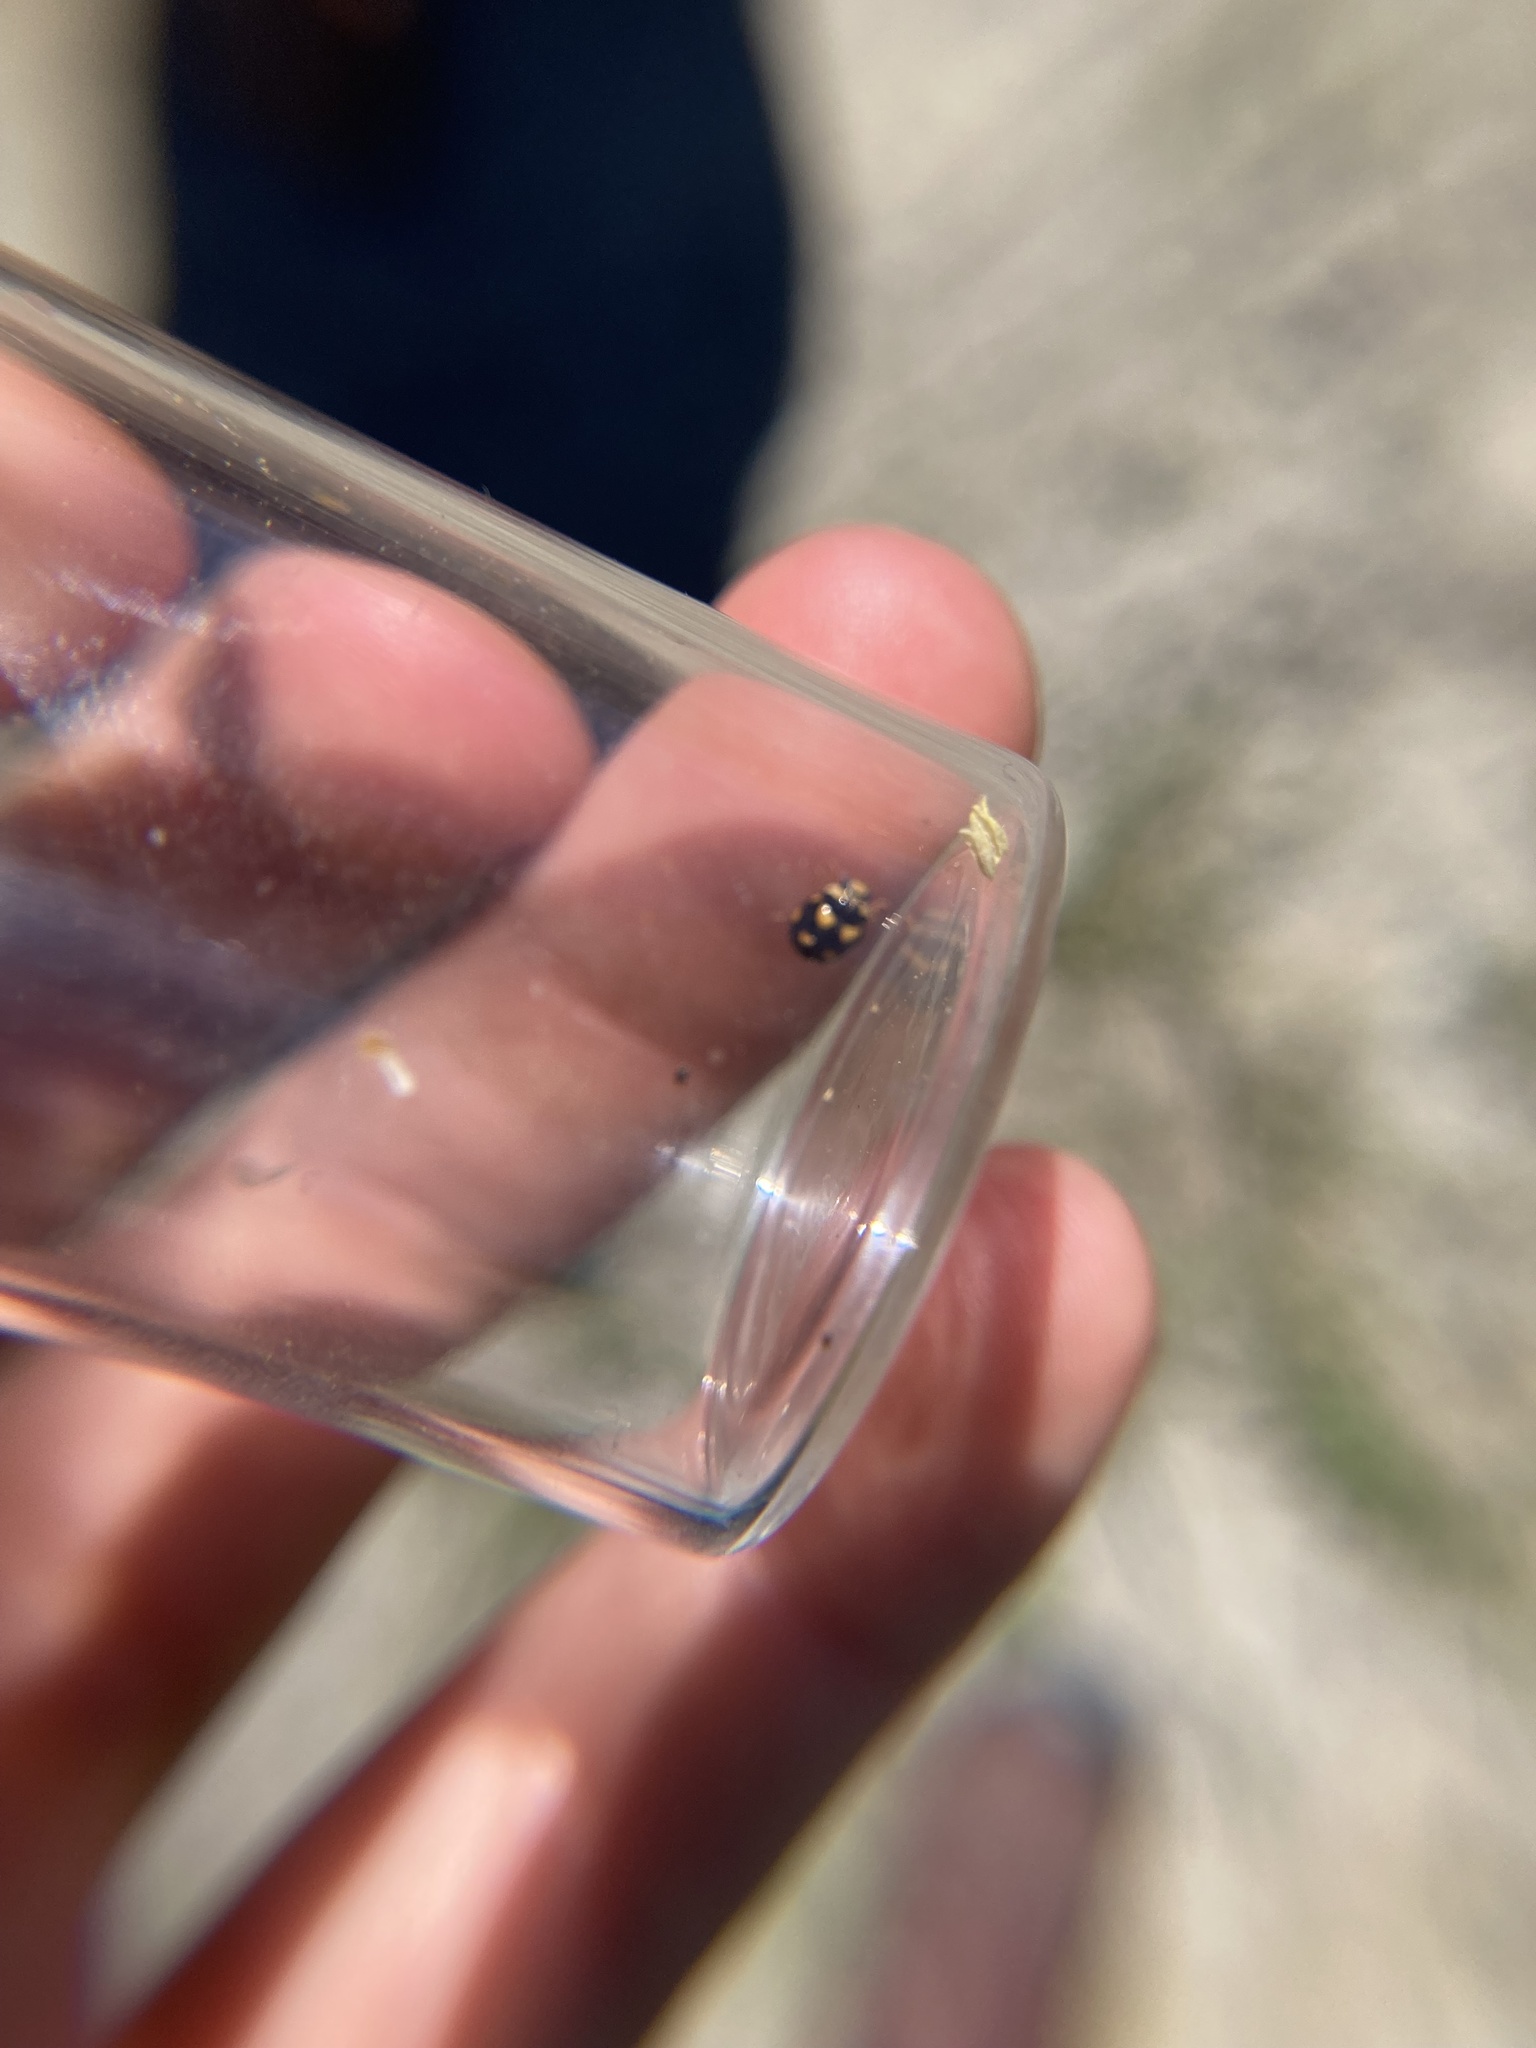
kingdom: Animalia
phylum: Arthropoda
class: Insecta
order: Coleoptera
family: Coccinellidae
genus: Brachiacantha
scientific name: Brachiacantha ursina
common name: Ursine spurleg lady beetle
